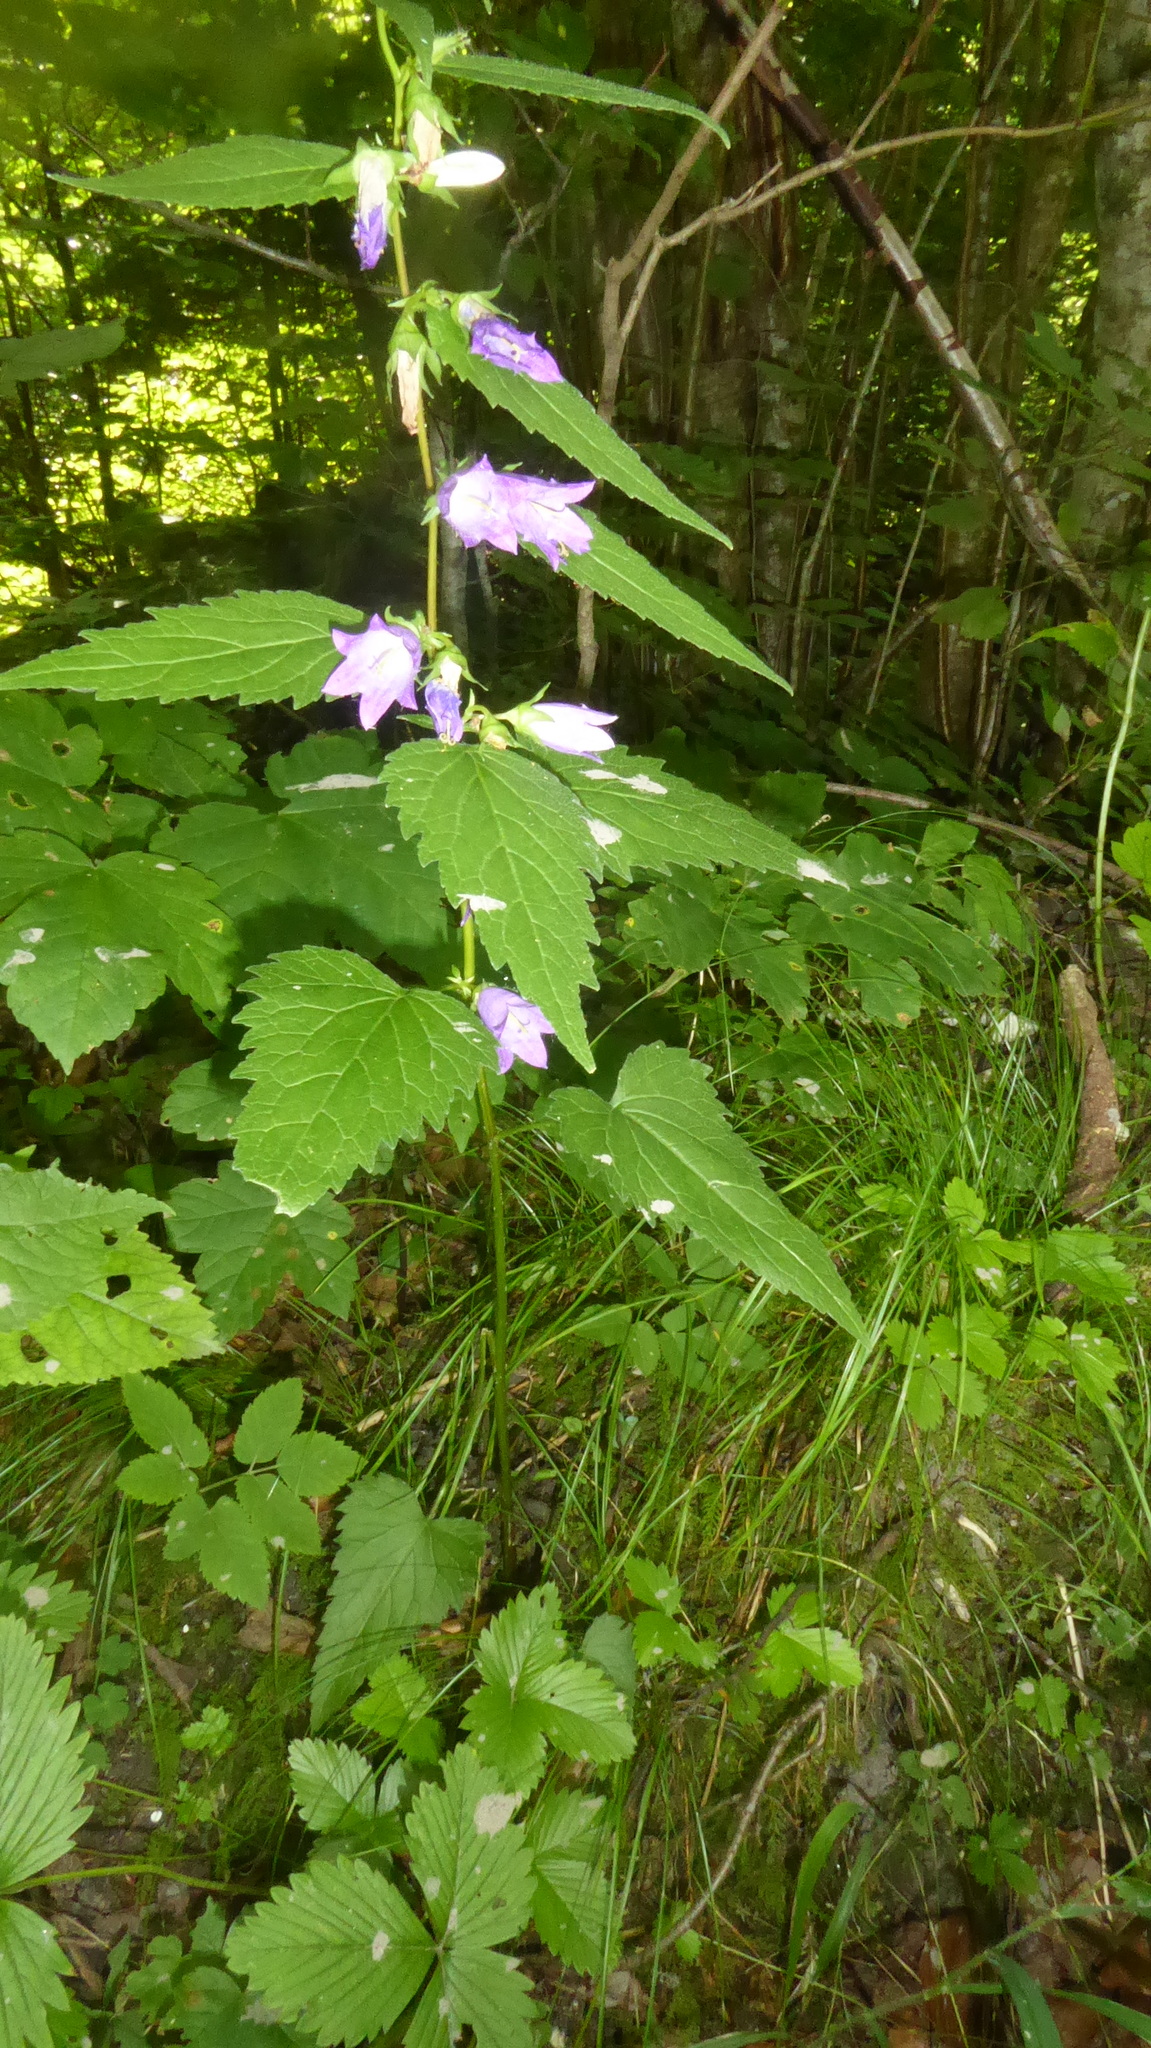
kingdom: Plantae
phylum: Tracheophyta
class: Magnoliopsida
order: Asterales
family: Campanulaceae
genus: Campanula
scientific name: Campanula trachelium
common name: Nettle-leaved bellflower
